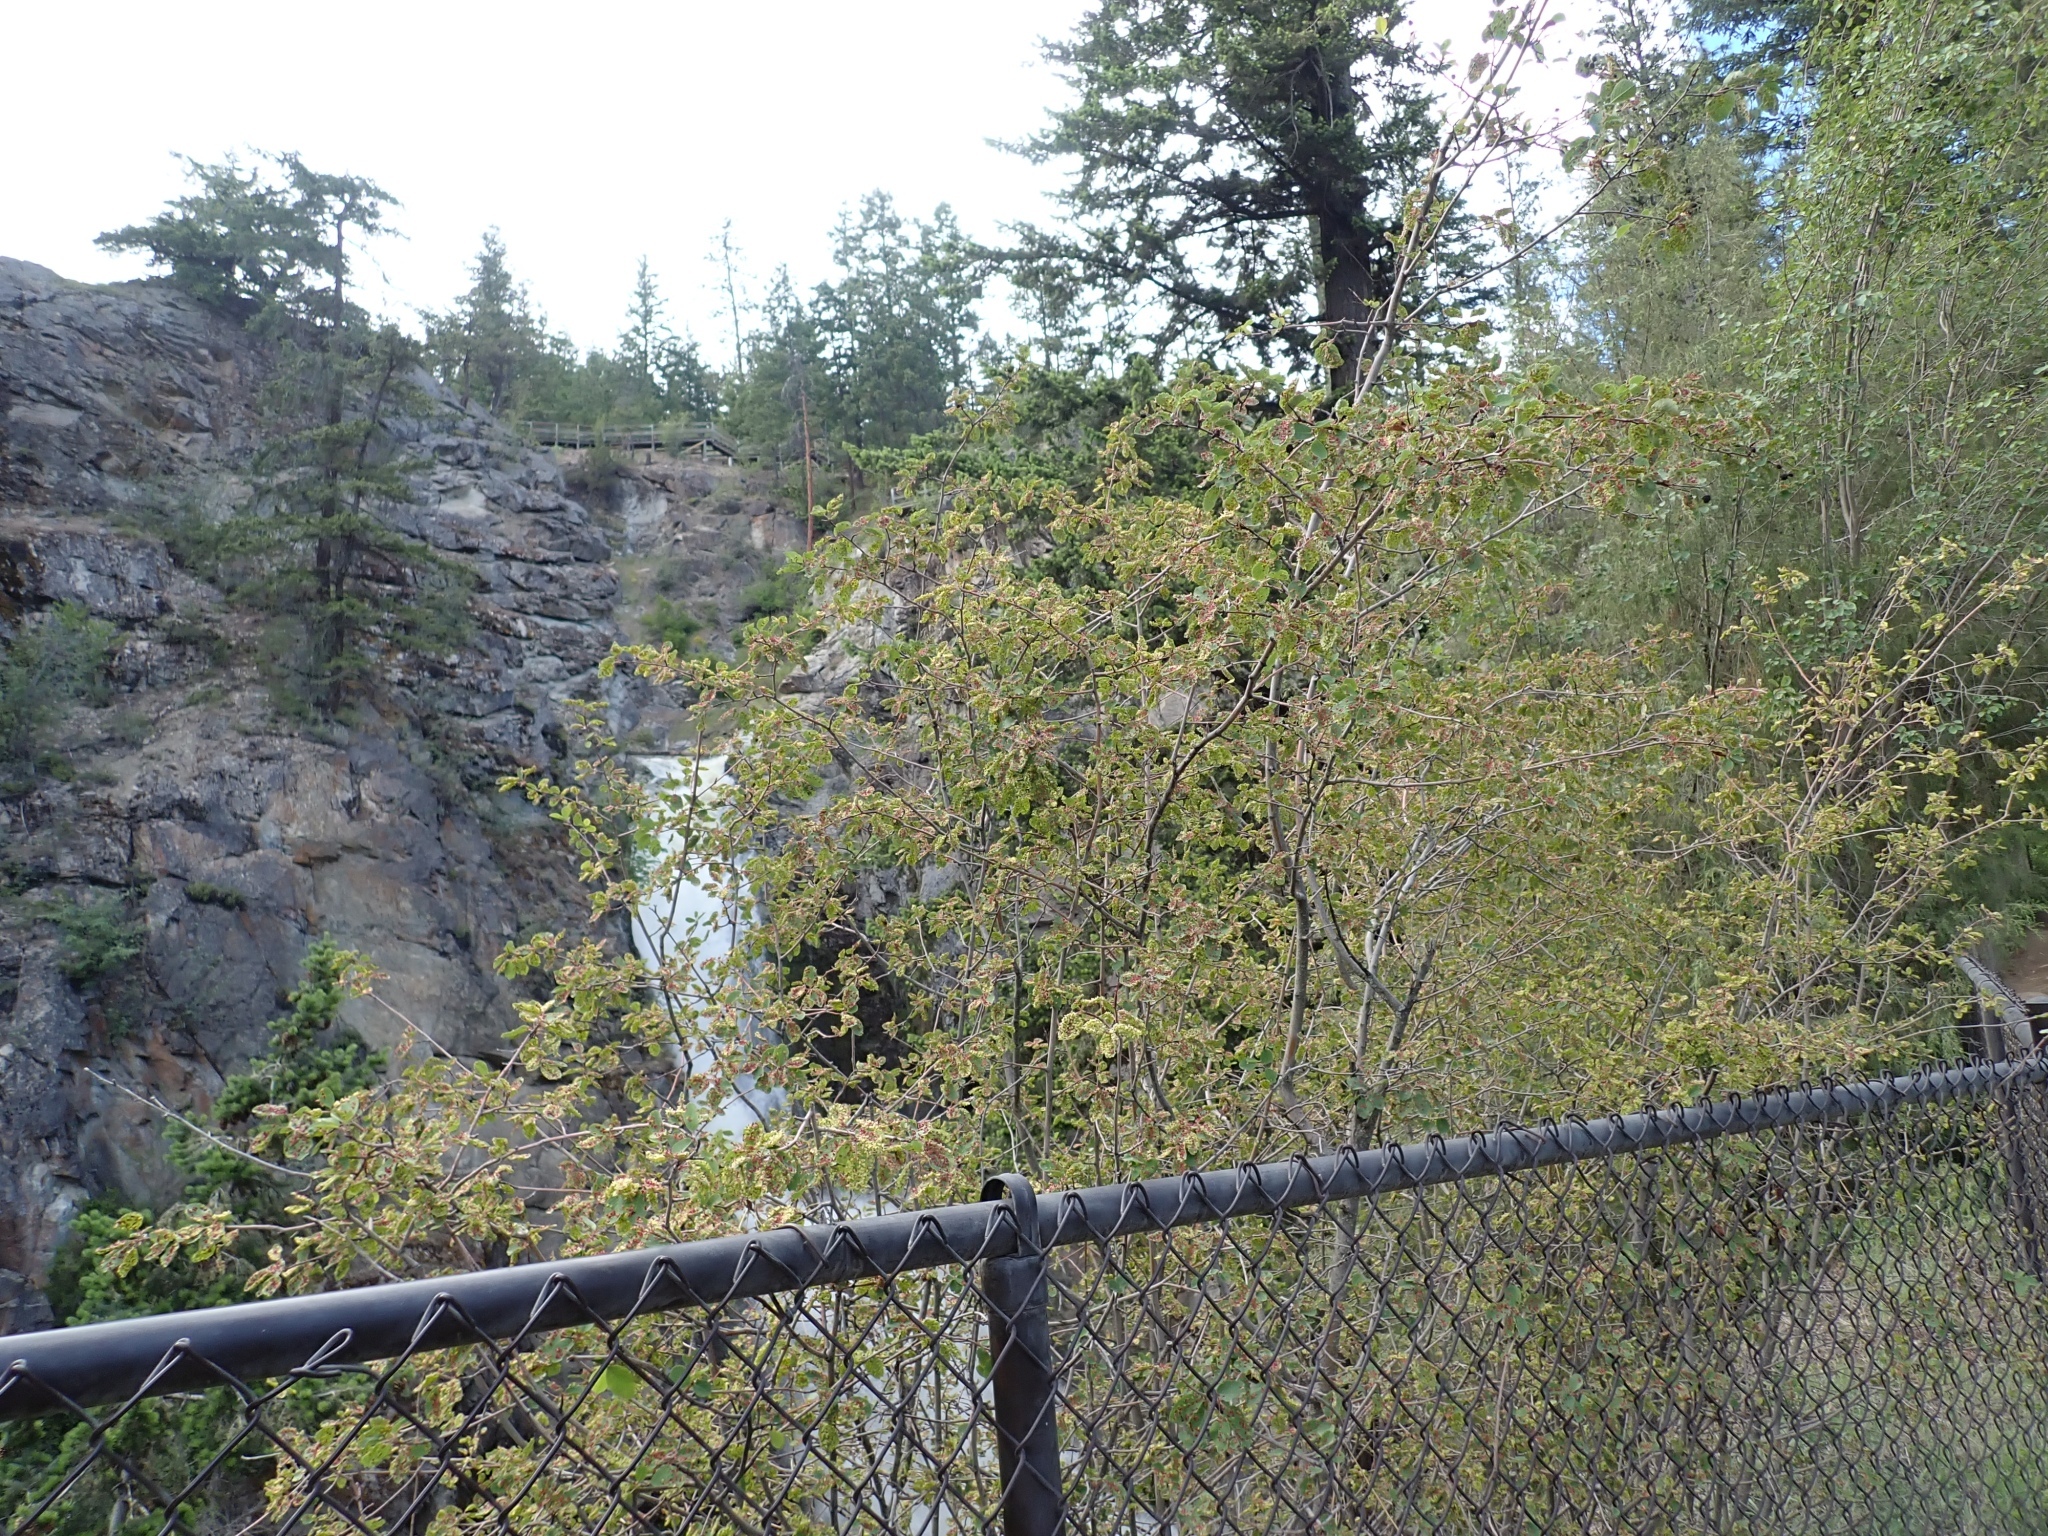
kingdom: Plantae
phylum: Tracheophyta
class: Magnoliopsida
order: Rosales
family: Rosaceae
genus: Amelanchier
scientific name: Amelanchier alnifolia
